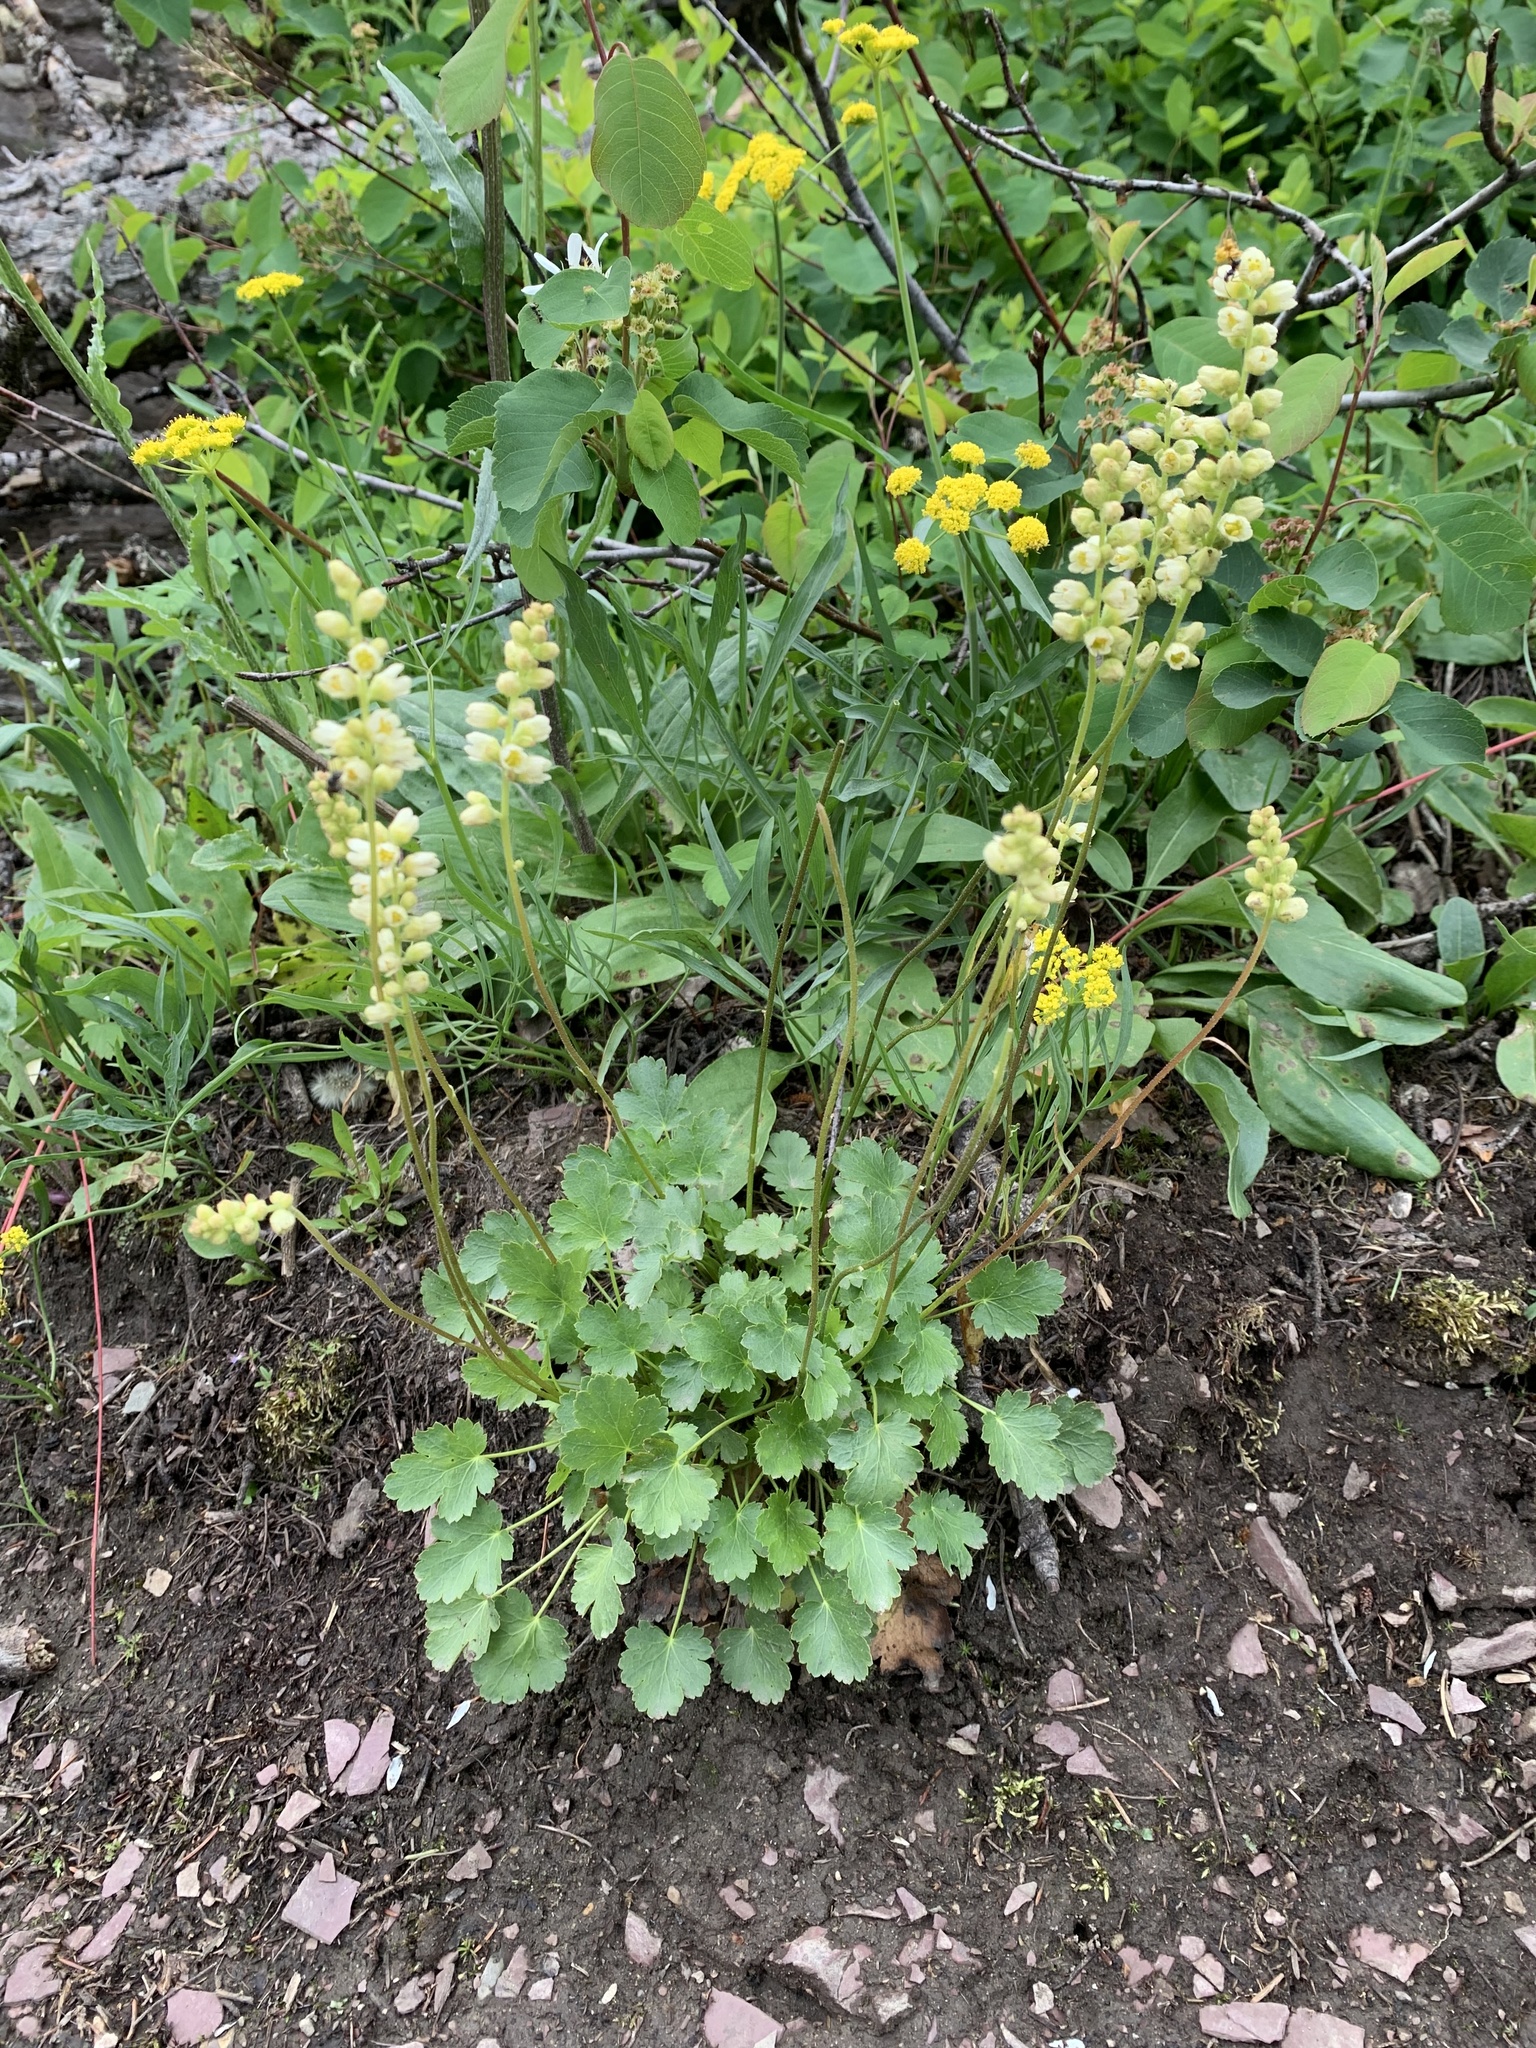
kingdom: Plantae
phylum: Tracheophyta
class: Magnoliopsida
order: Saxifragales
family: Saxifragaceae
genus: Heuchera
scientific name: Heuchera cylindrica
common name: Mat alumroot
